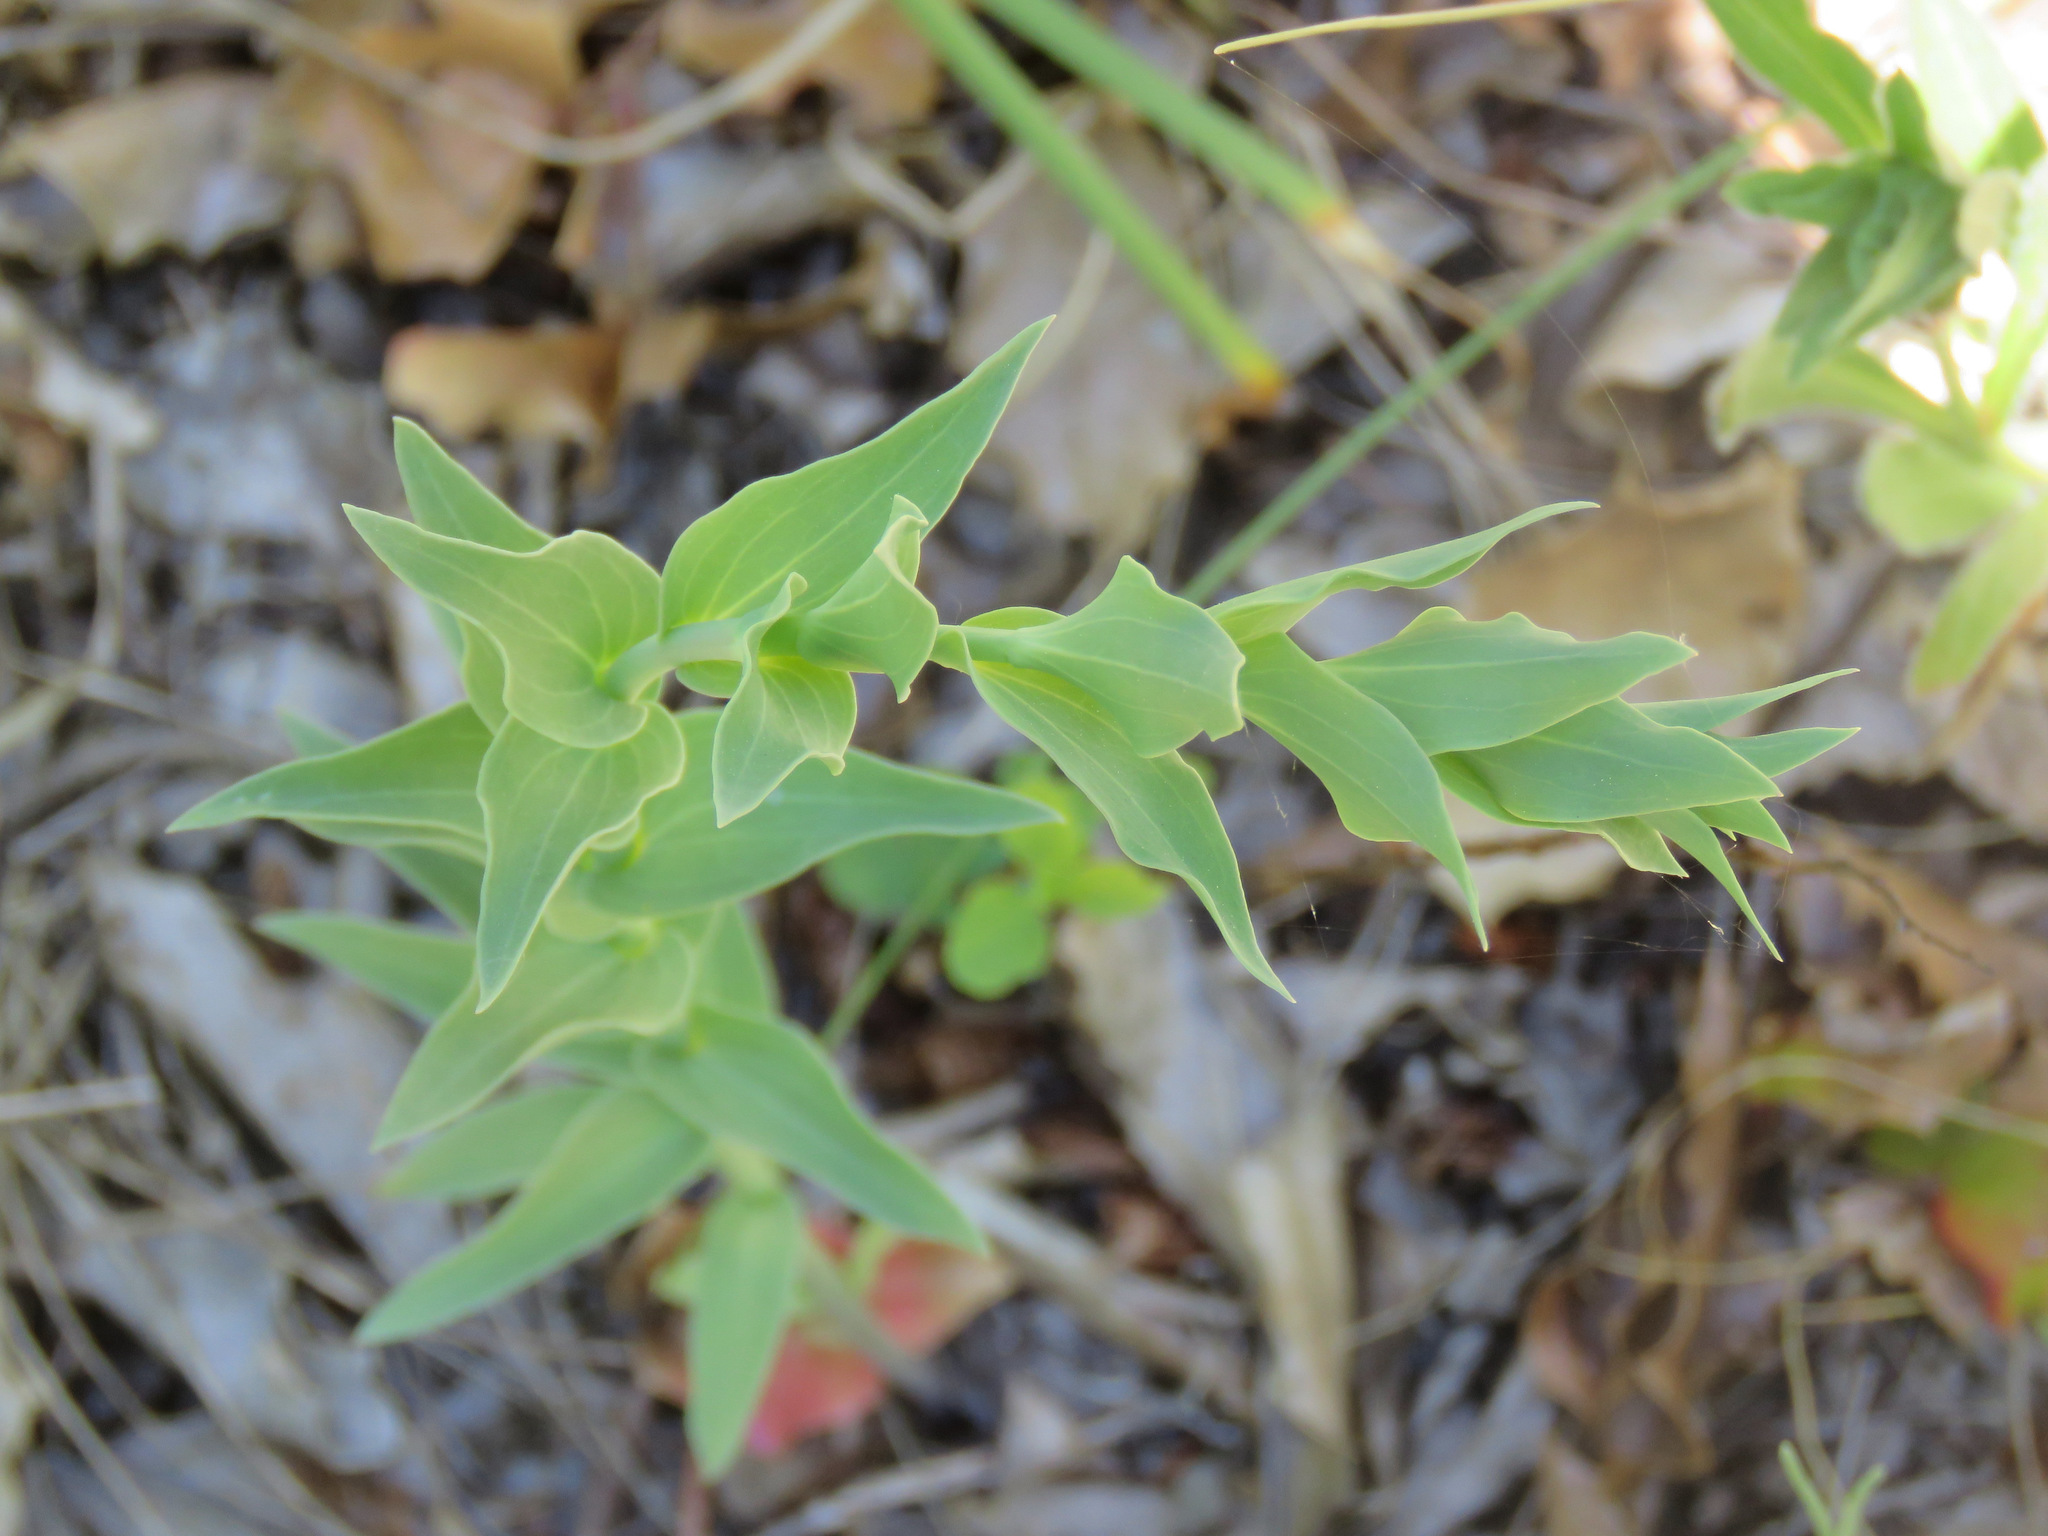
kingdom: Plantae
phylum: Tracheophyta
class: Magnoliopsida
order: Lamiales
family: Plantaginaceae
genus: Linaria
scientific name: Linaria dalmatica
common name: Dalmatian toadflax
